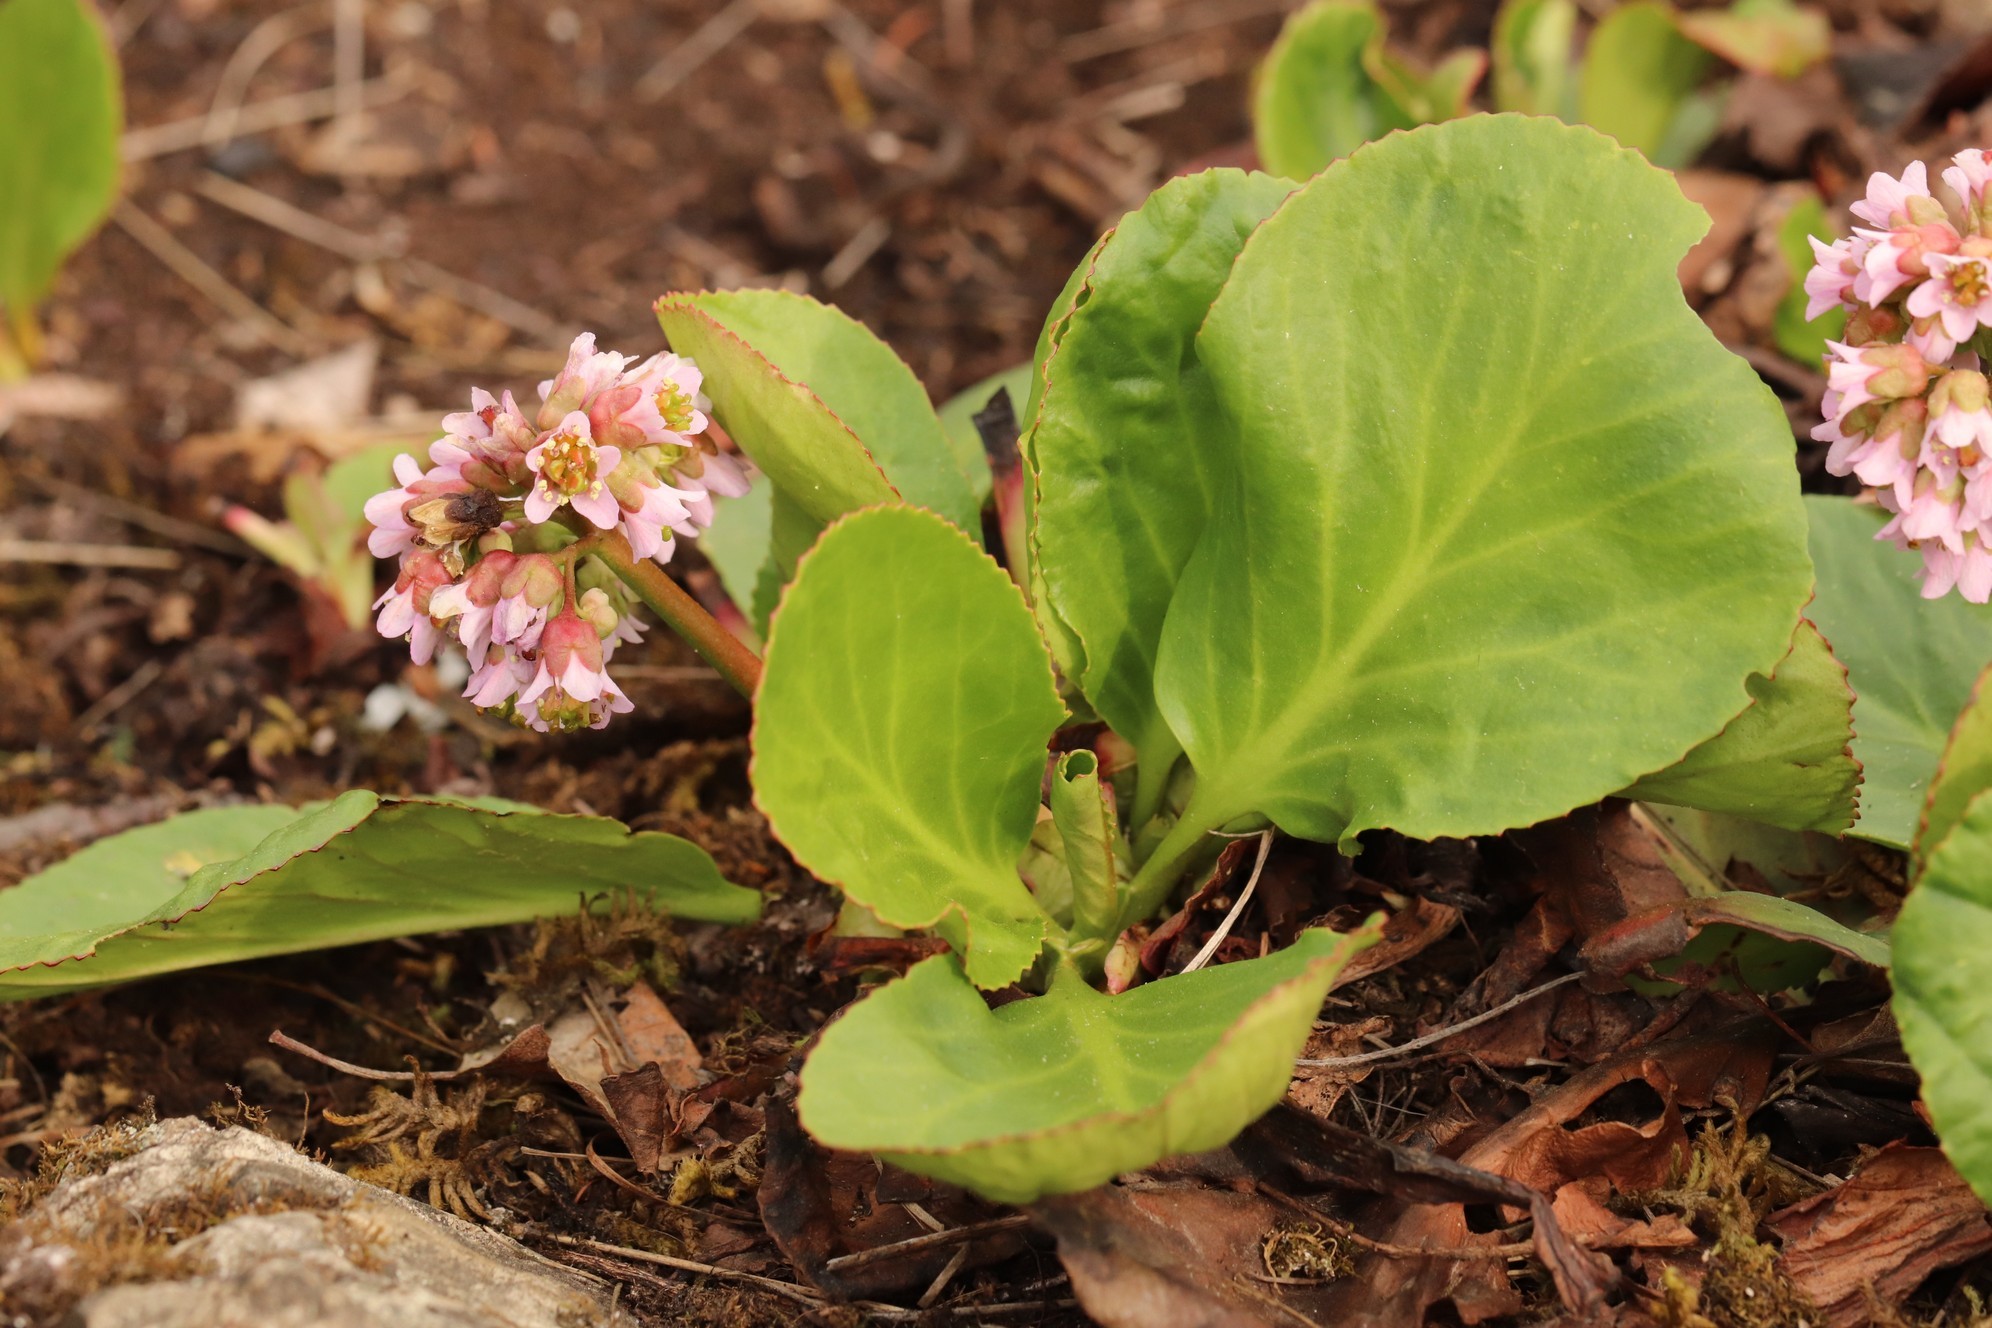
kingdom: Plantae
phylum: Tracheophyta
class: Magnoliopsida
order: Saxifragales
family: Saxifragaceae
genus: Bergenia
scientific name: Bergenia crassifolia
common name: Elephant-ears
